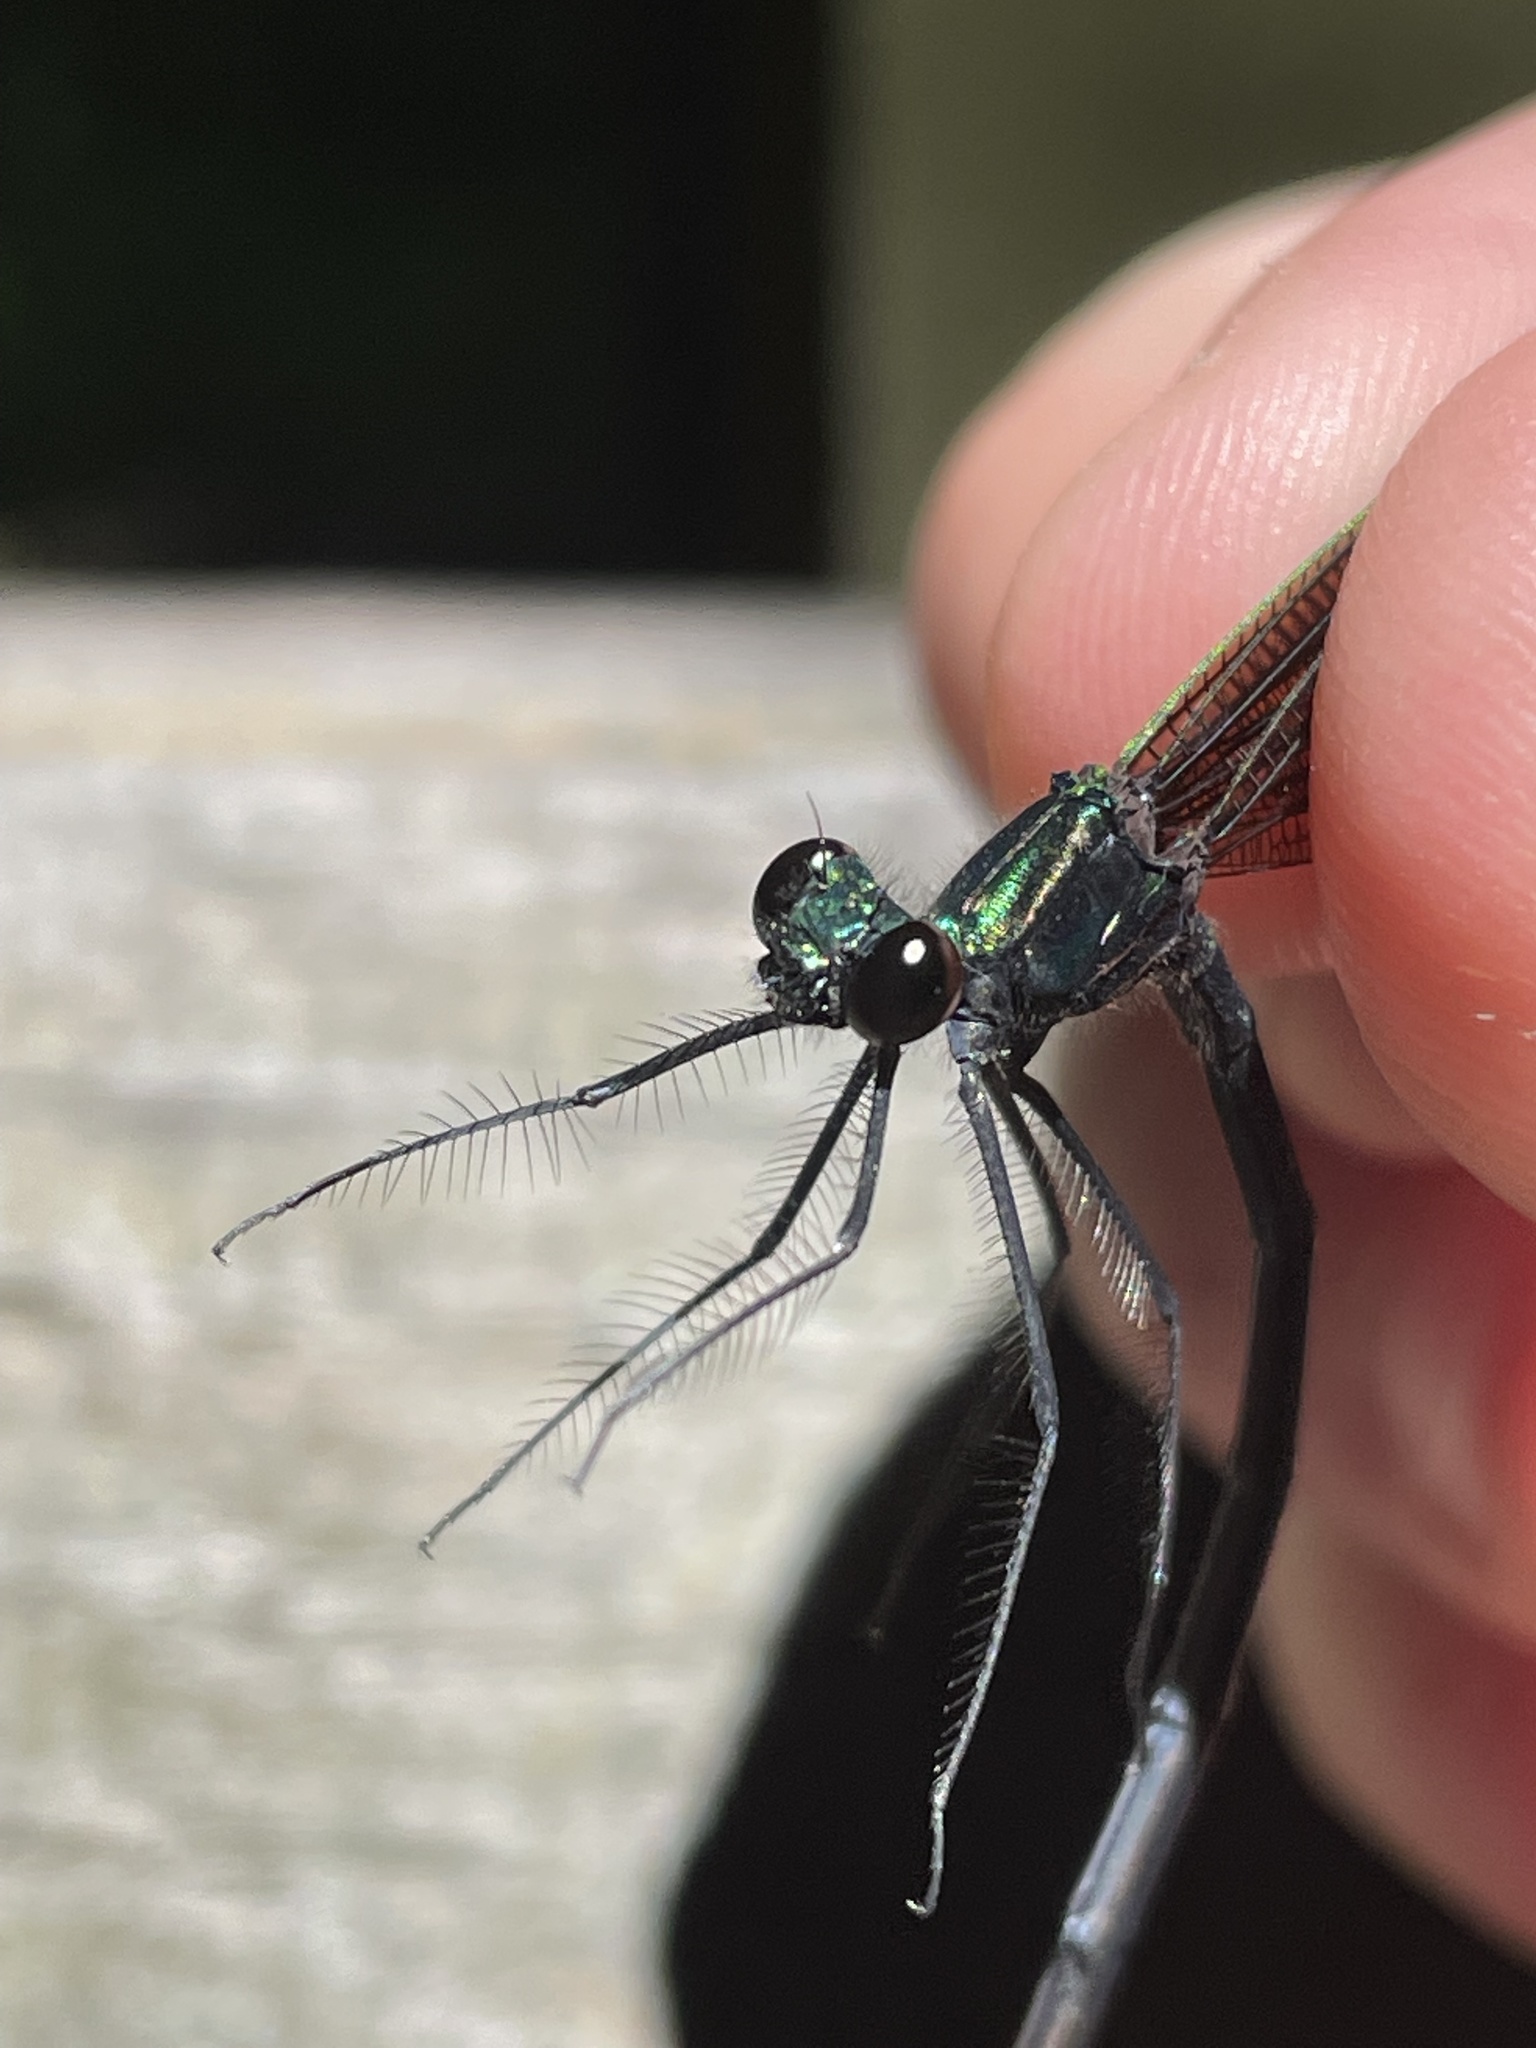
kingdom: Animalia
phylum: Arthropoda
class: Insecta
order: Odonata
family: Calopterygidae
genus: Calopteryx
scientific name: Calopteryx maculata
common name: Ebony jewelwing
